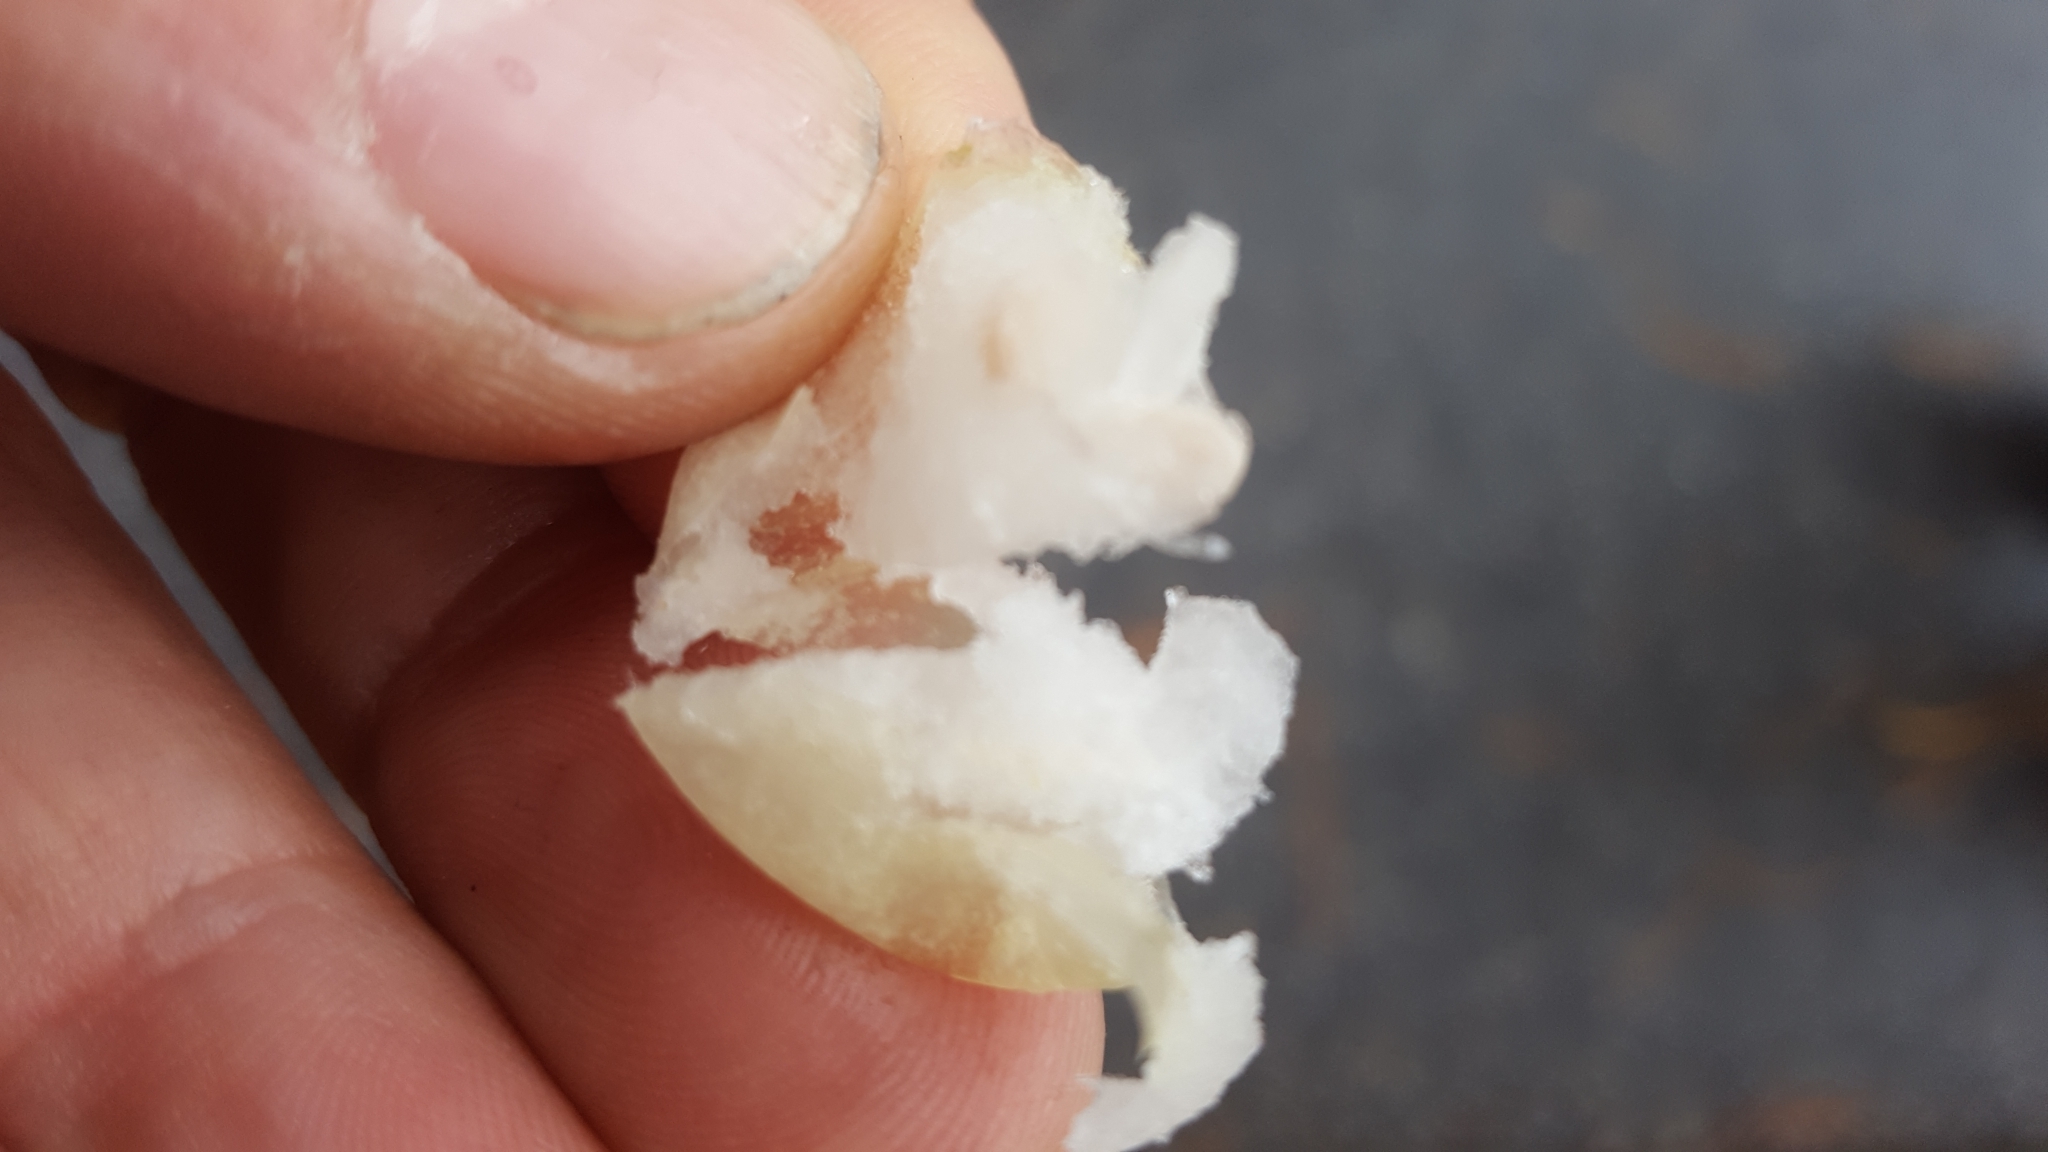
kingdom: Plantae
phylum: Tracheophyta
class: Magnoliopsida
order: Dipsacales
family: Caprifoliaceae
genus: Symphoricarpos
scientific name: Symphoricarpos albus
